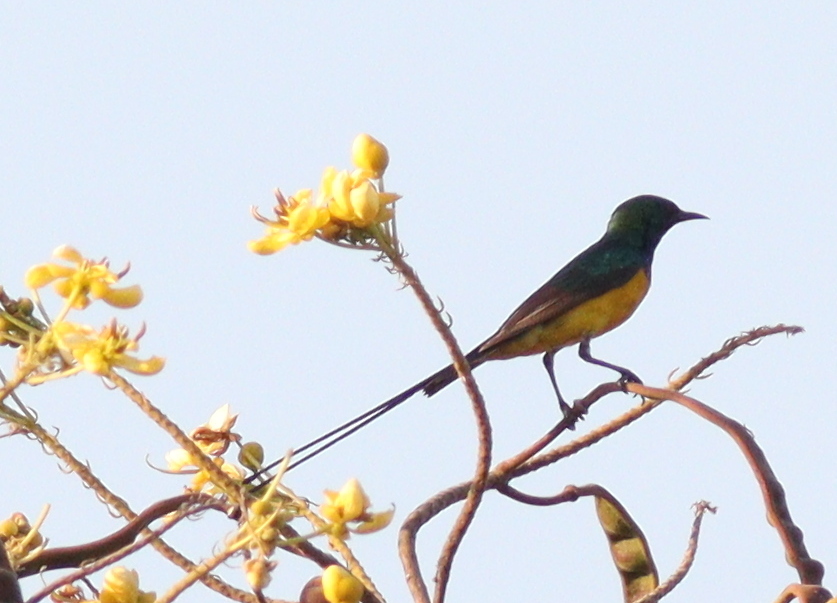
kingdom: Animalia
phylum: Chordata
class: Aves
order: Passeriformes
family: Nectariniidae
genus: Hedydipna
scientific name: Hedydipna platura
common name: Pygmy sunbird
